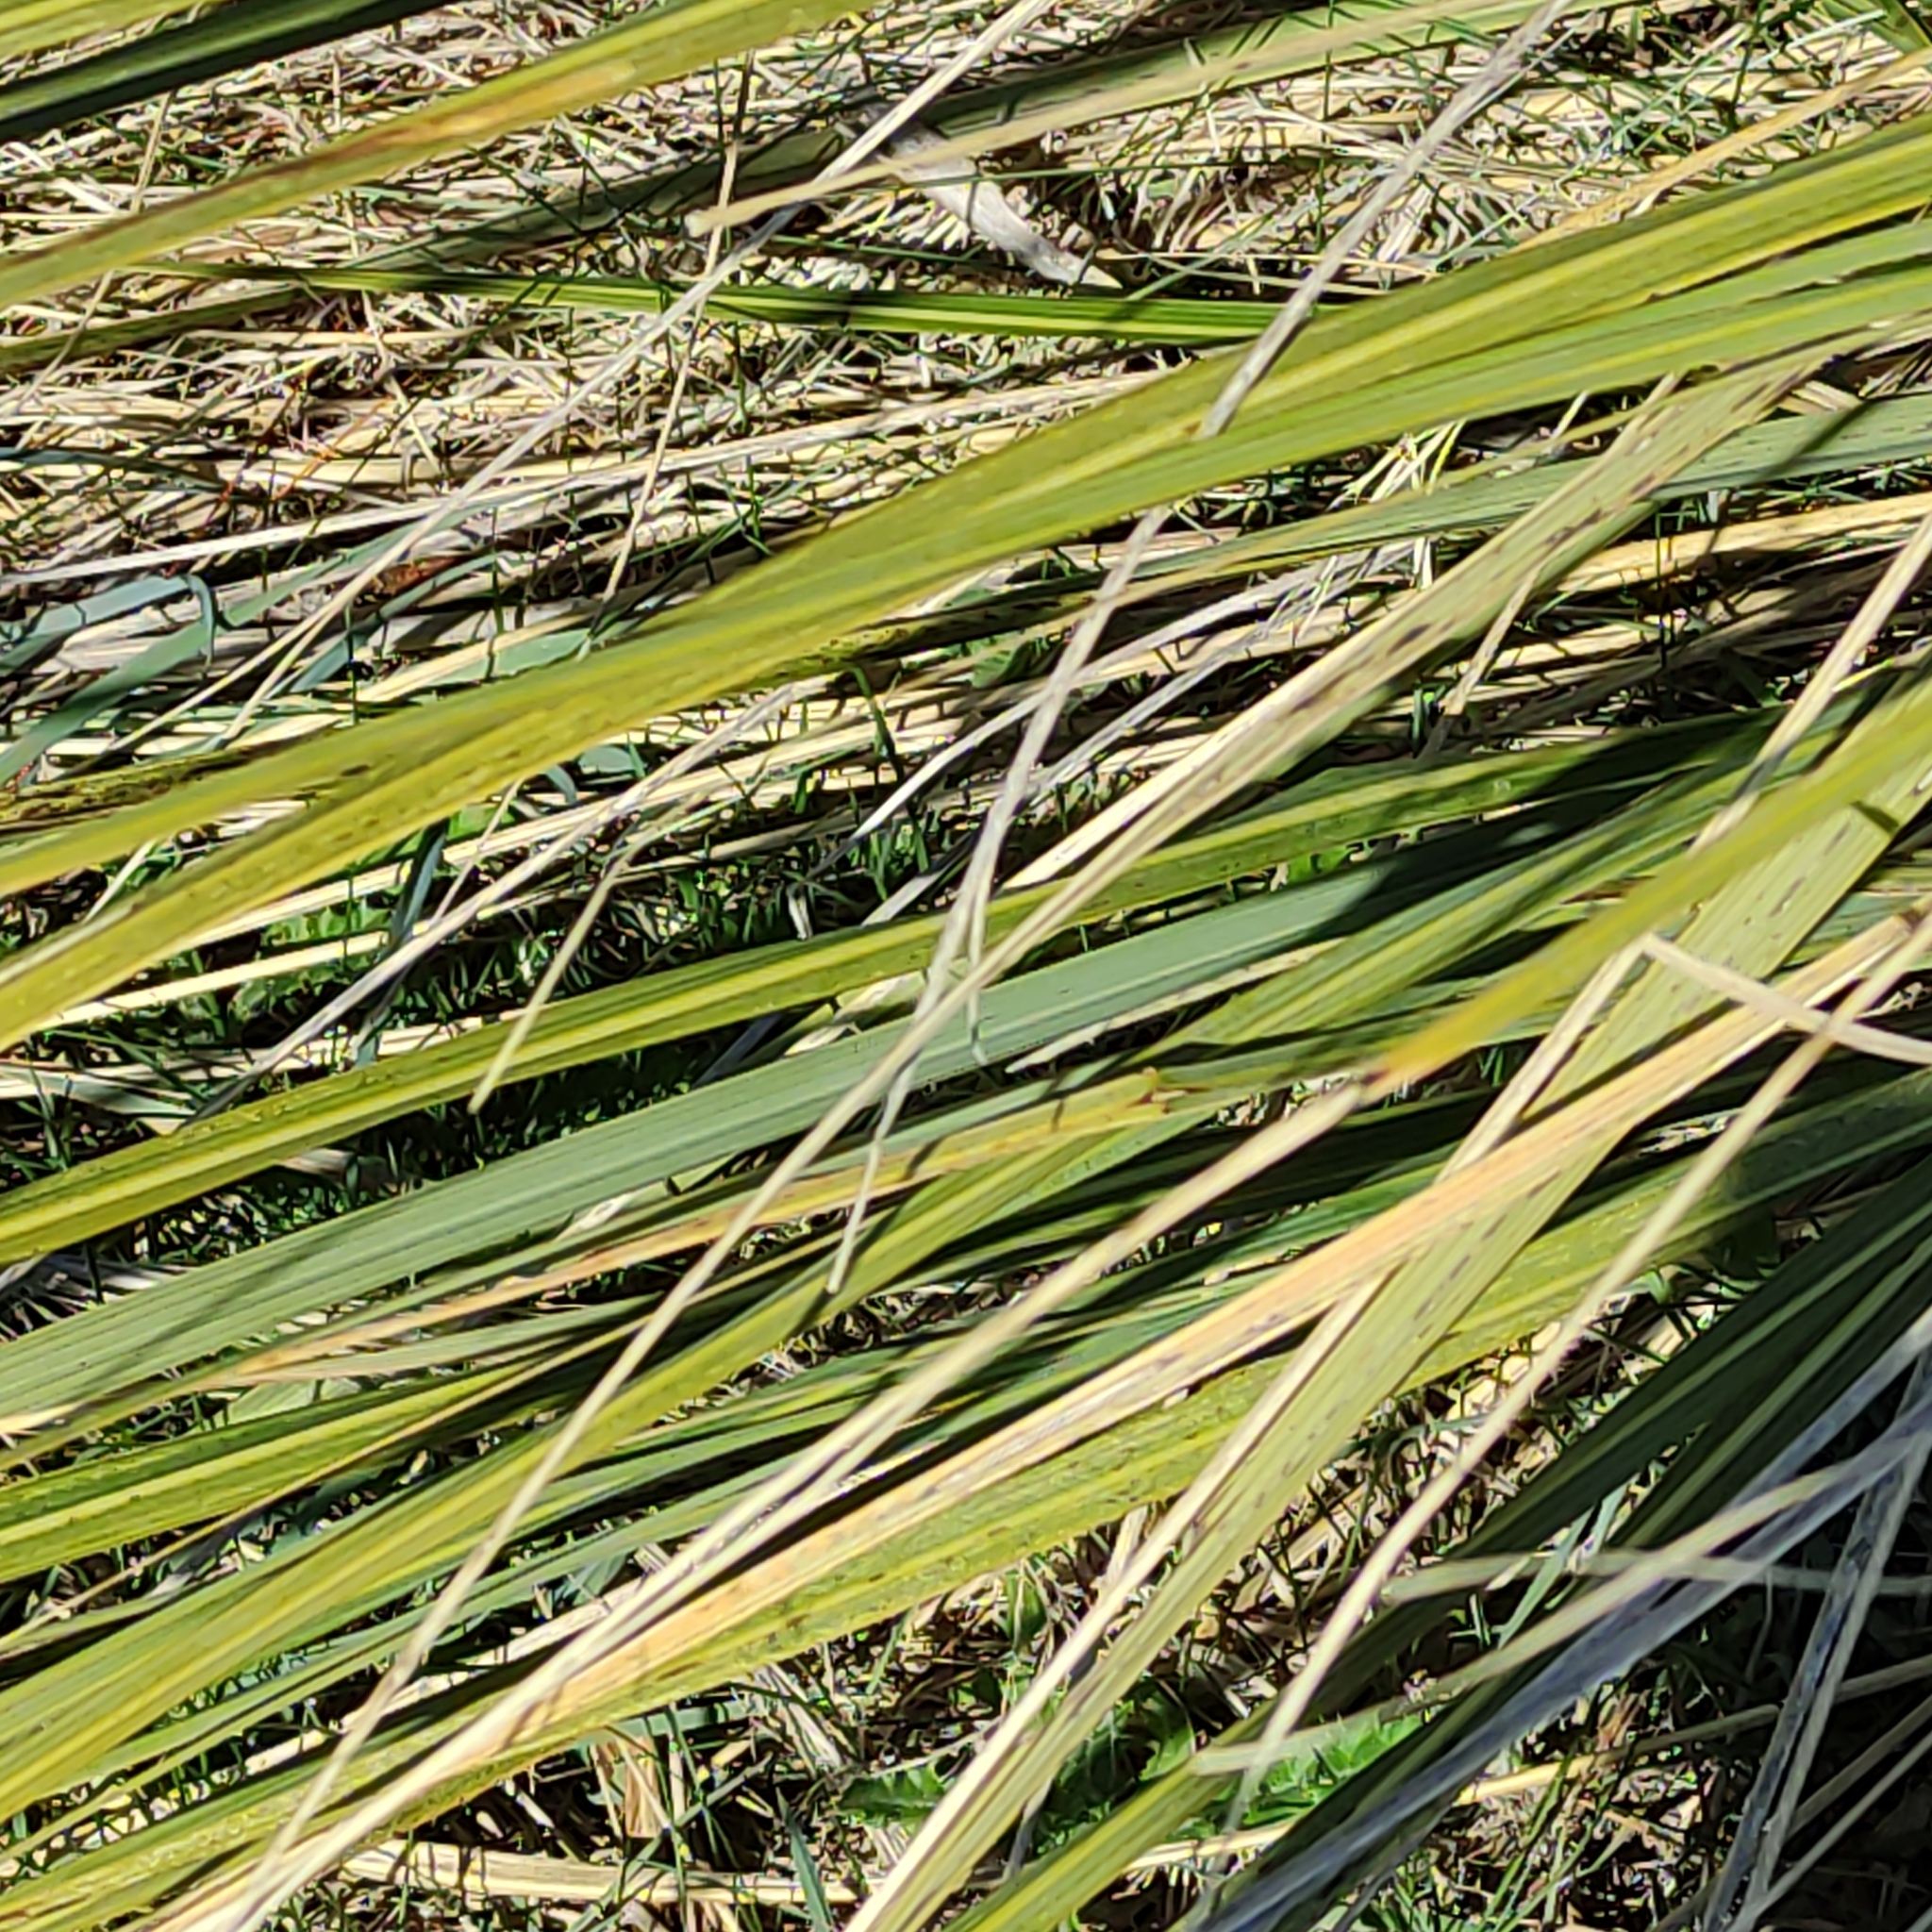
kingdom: Plantae
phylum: Tracheophyta
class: Liliopsida
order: Poales
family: Poaceae
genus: Austroderia
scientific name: Austroderia richardii
